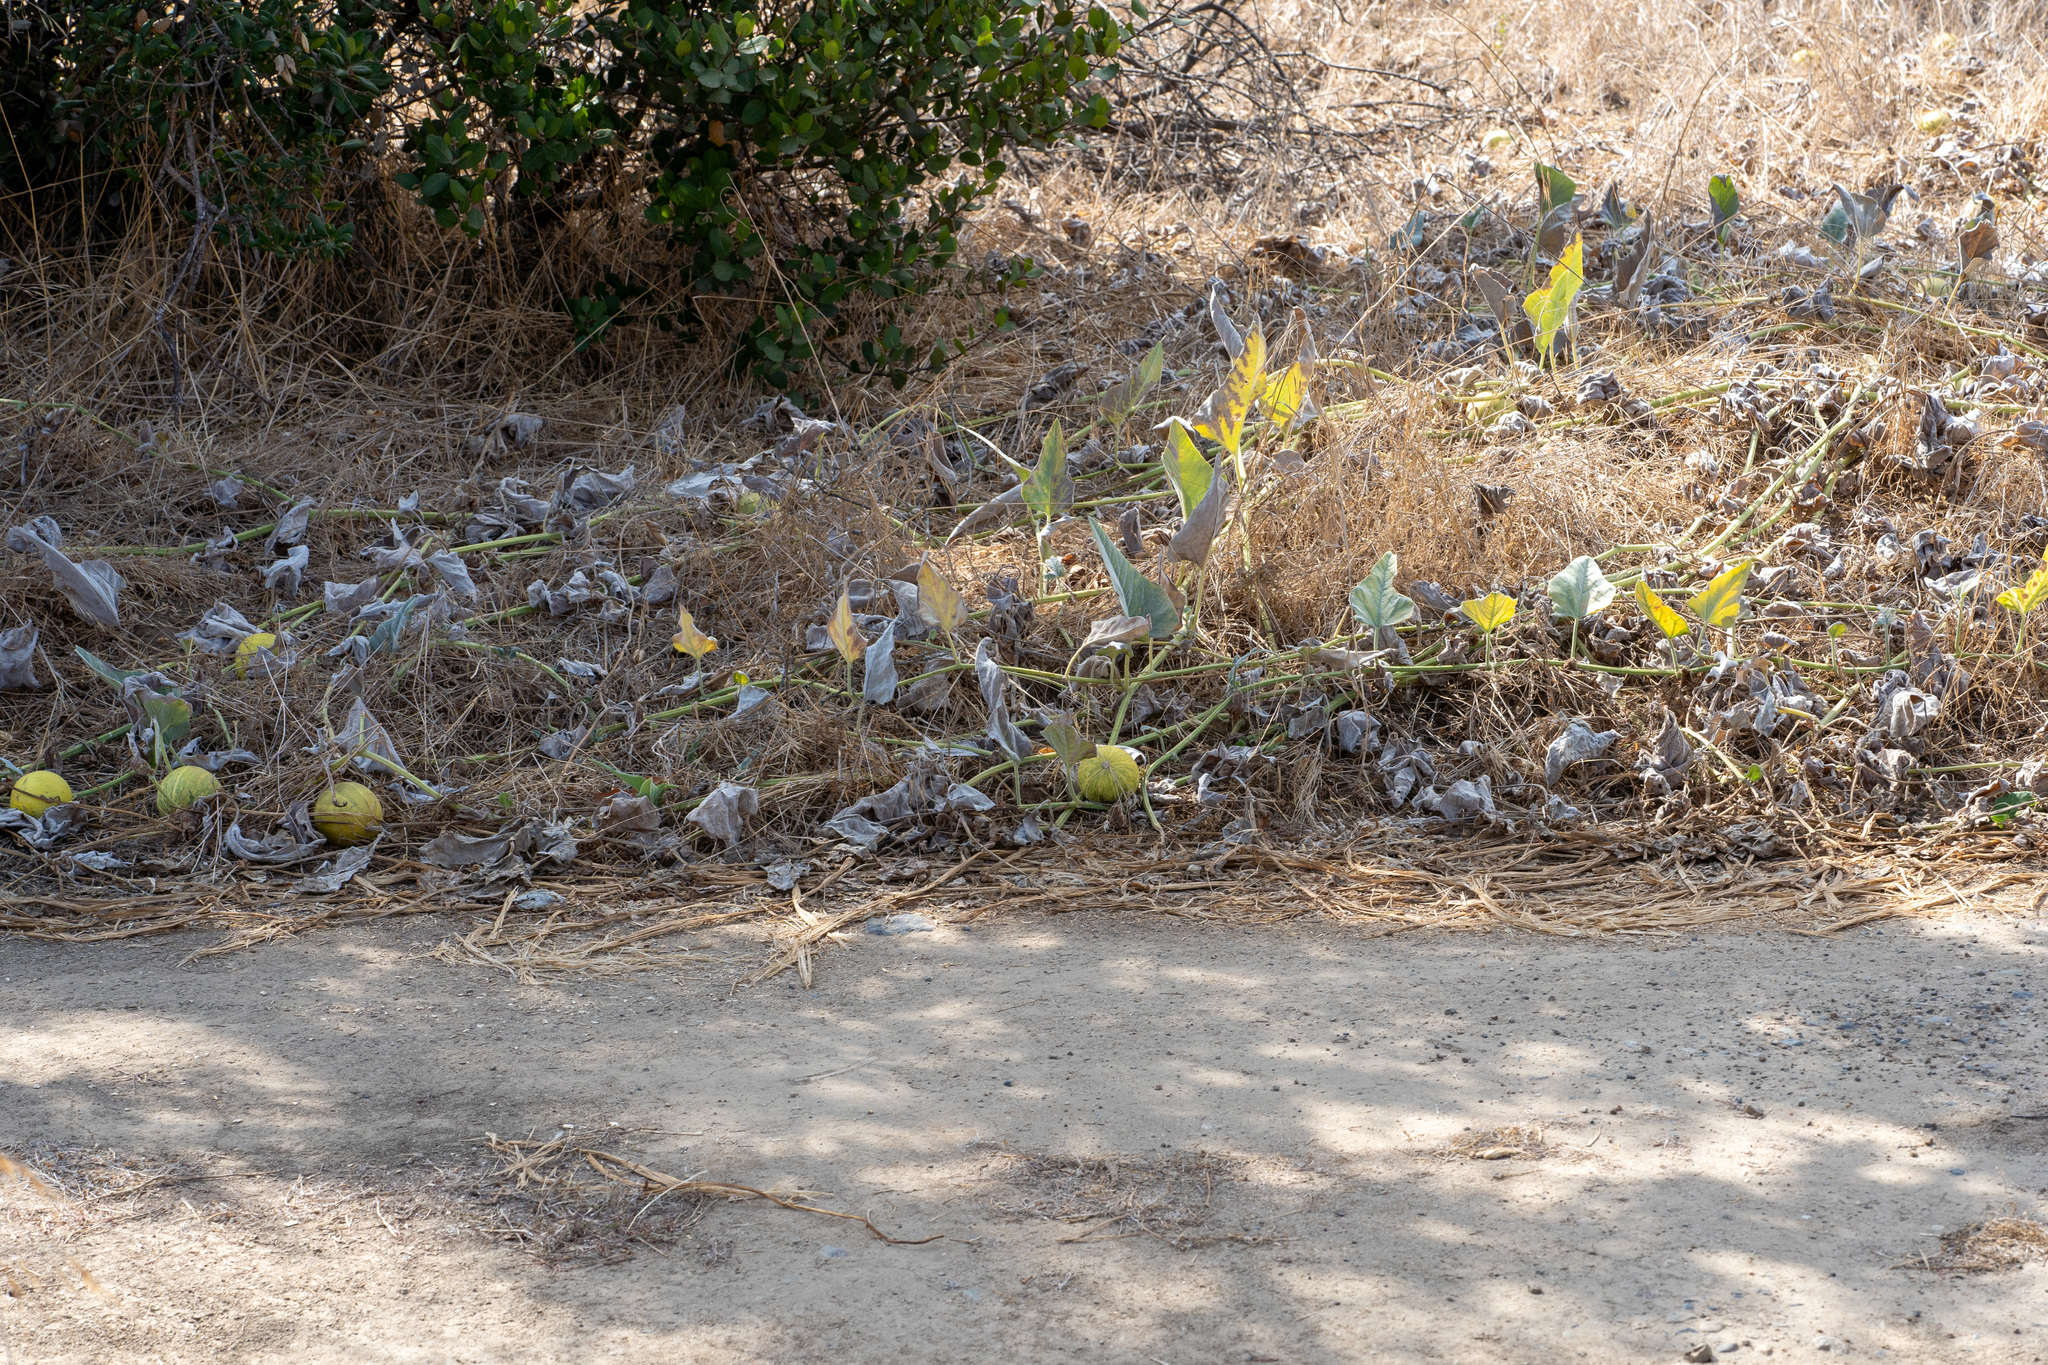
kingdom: Plantae
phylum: Tracheophyta
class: Magnoliopsida
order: Cucurbitales
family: Cucurbitaceae
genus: Cucurbita
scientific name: Cucurbita foetidissima
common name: Buffalo gourd
